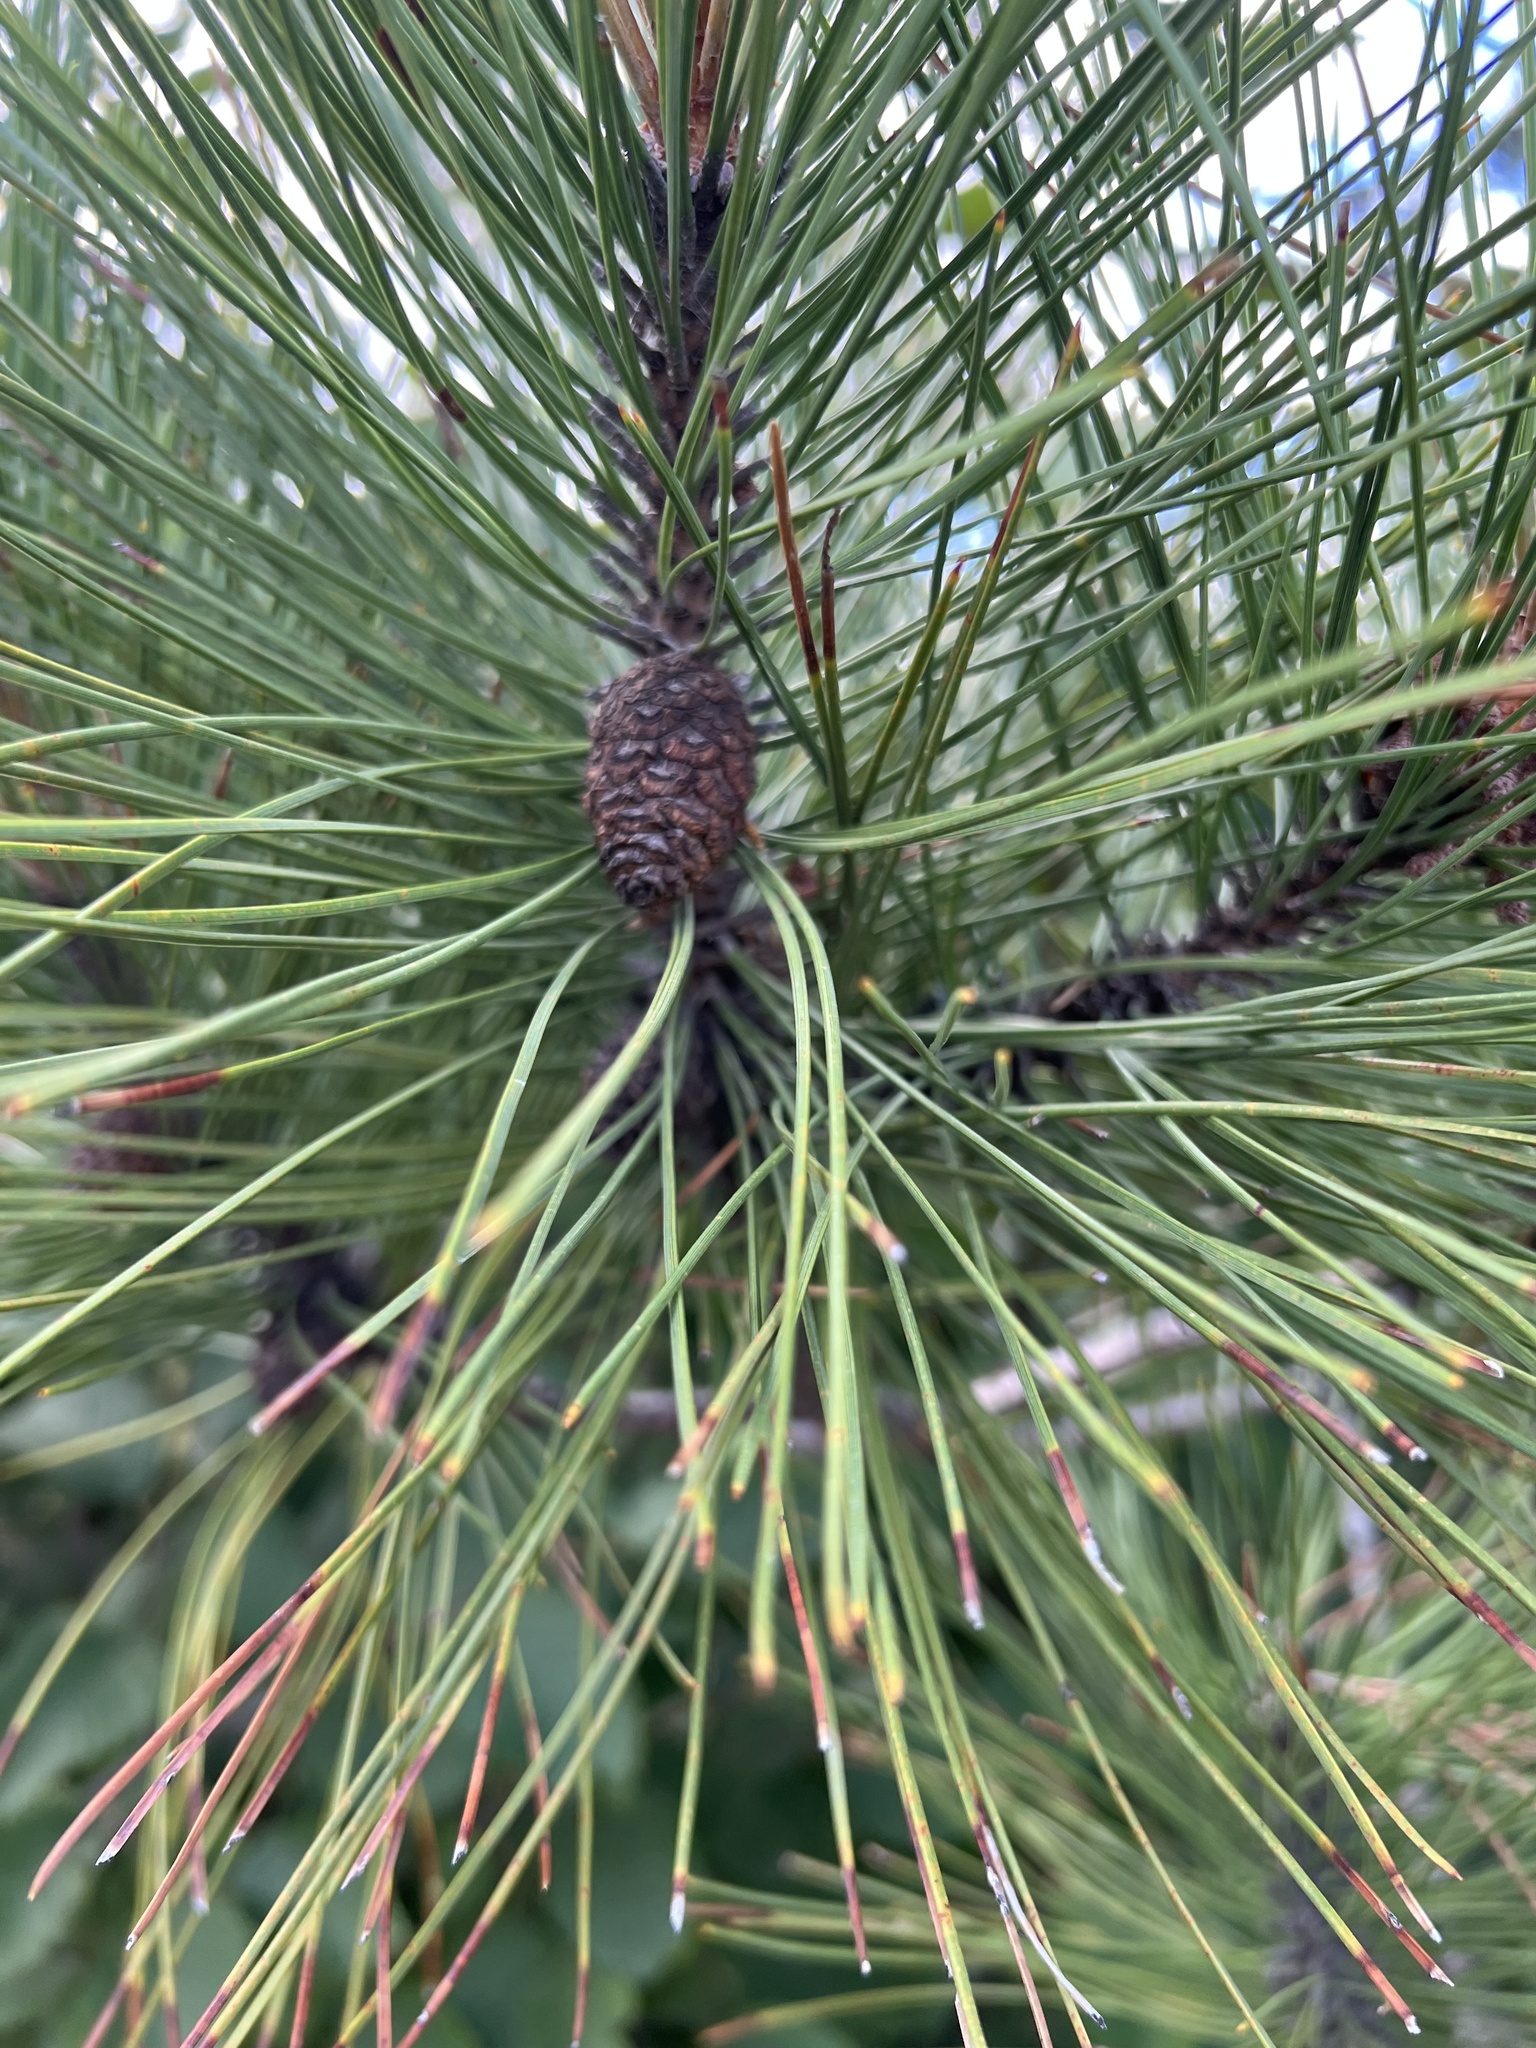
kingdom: Plantae
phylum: Tracheophyta
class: Pinopsida
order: Pinales
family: Pinaceae
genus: Pinus
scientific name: Pinus resinosa
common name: Norway pine
